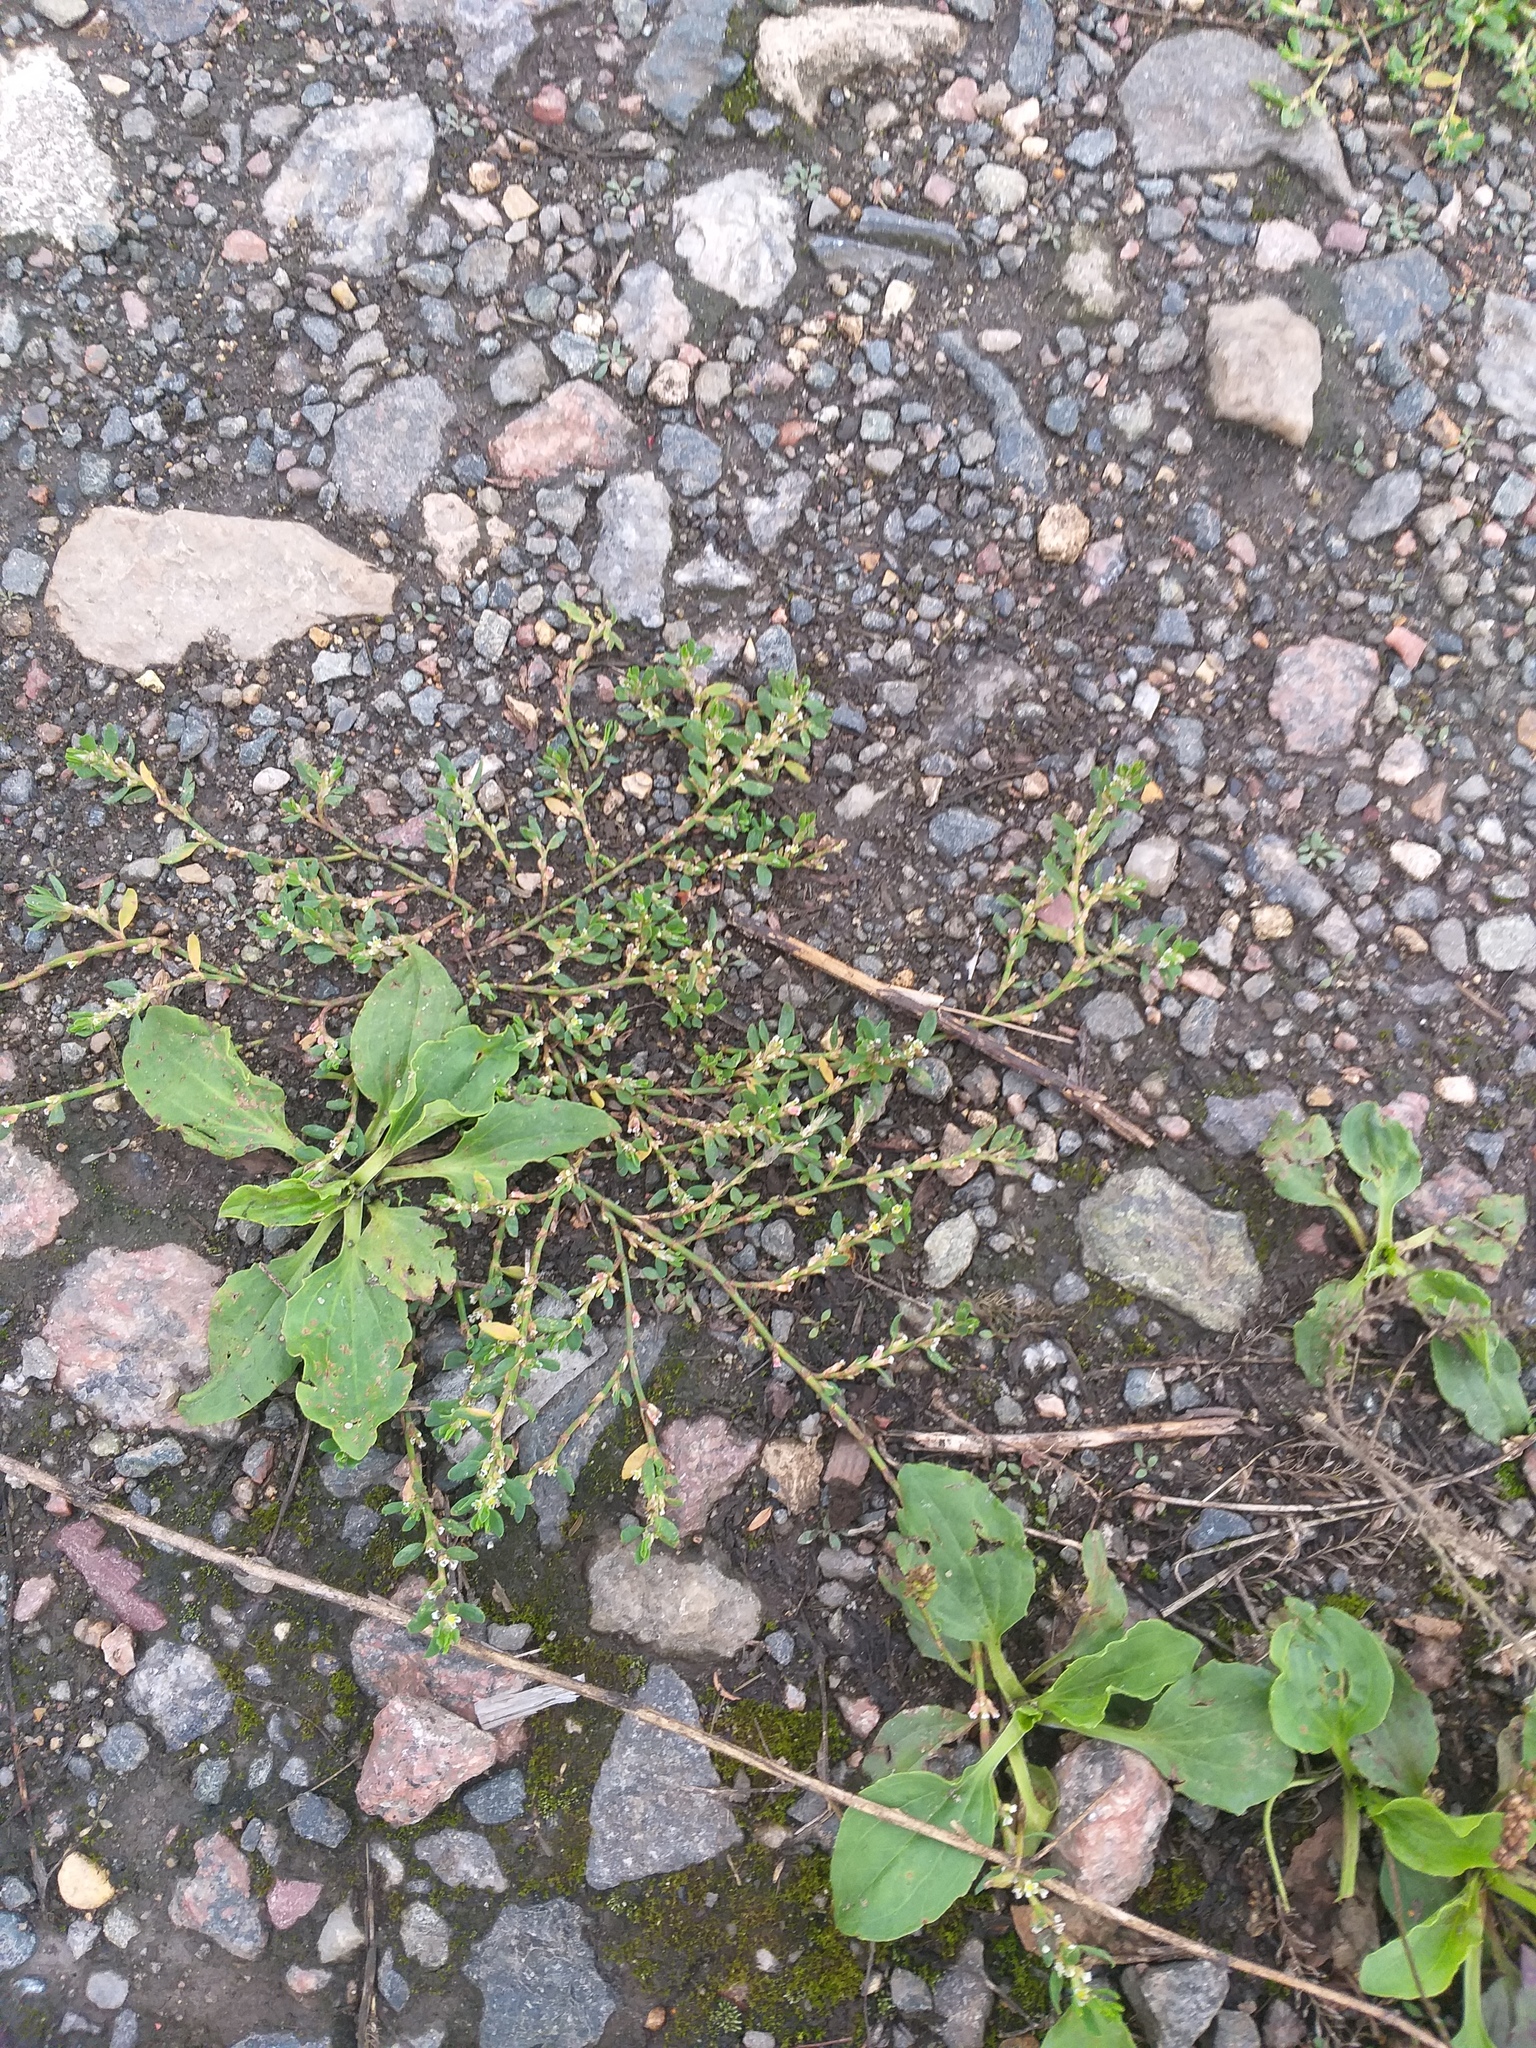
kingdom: Plantae
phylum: Tracheophyta
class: Magnoliopsida
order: Caryophyllales
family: Polygonaceae
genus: Polygonum
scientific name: Polygonum
